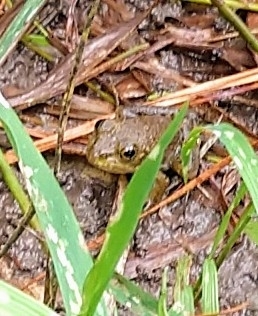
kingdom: Animalia
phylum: Chordata
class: Amphibia
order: Anura
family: Ranidae
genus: Lithobates
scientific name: Lithobates clamitans
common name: Green frog
